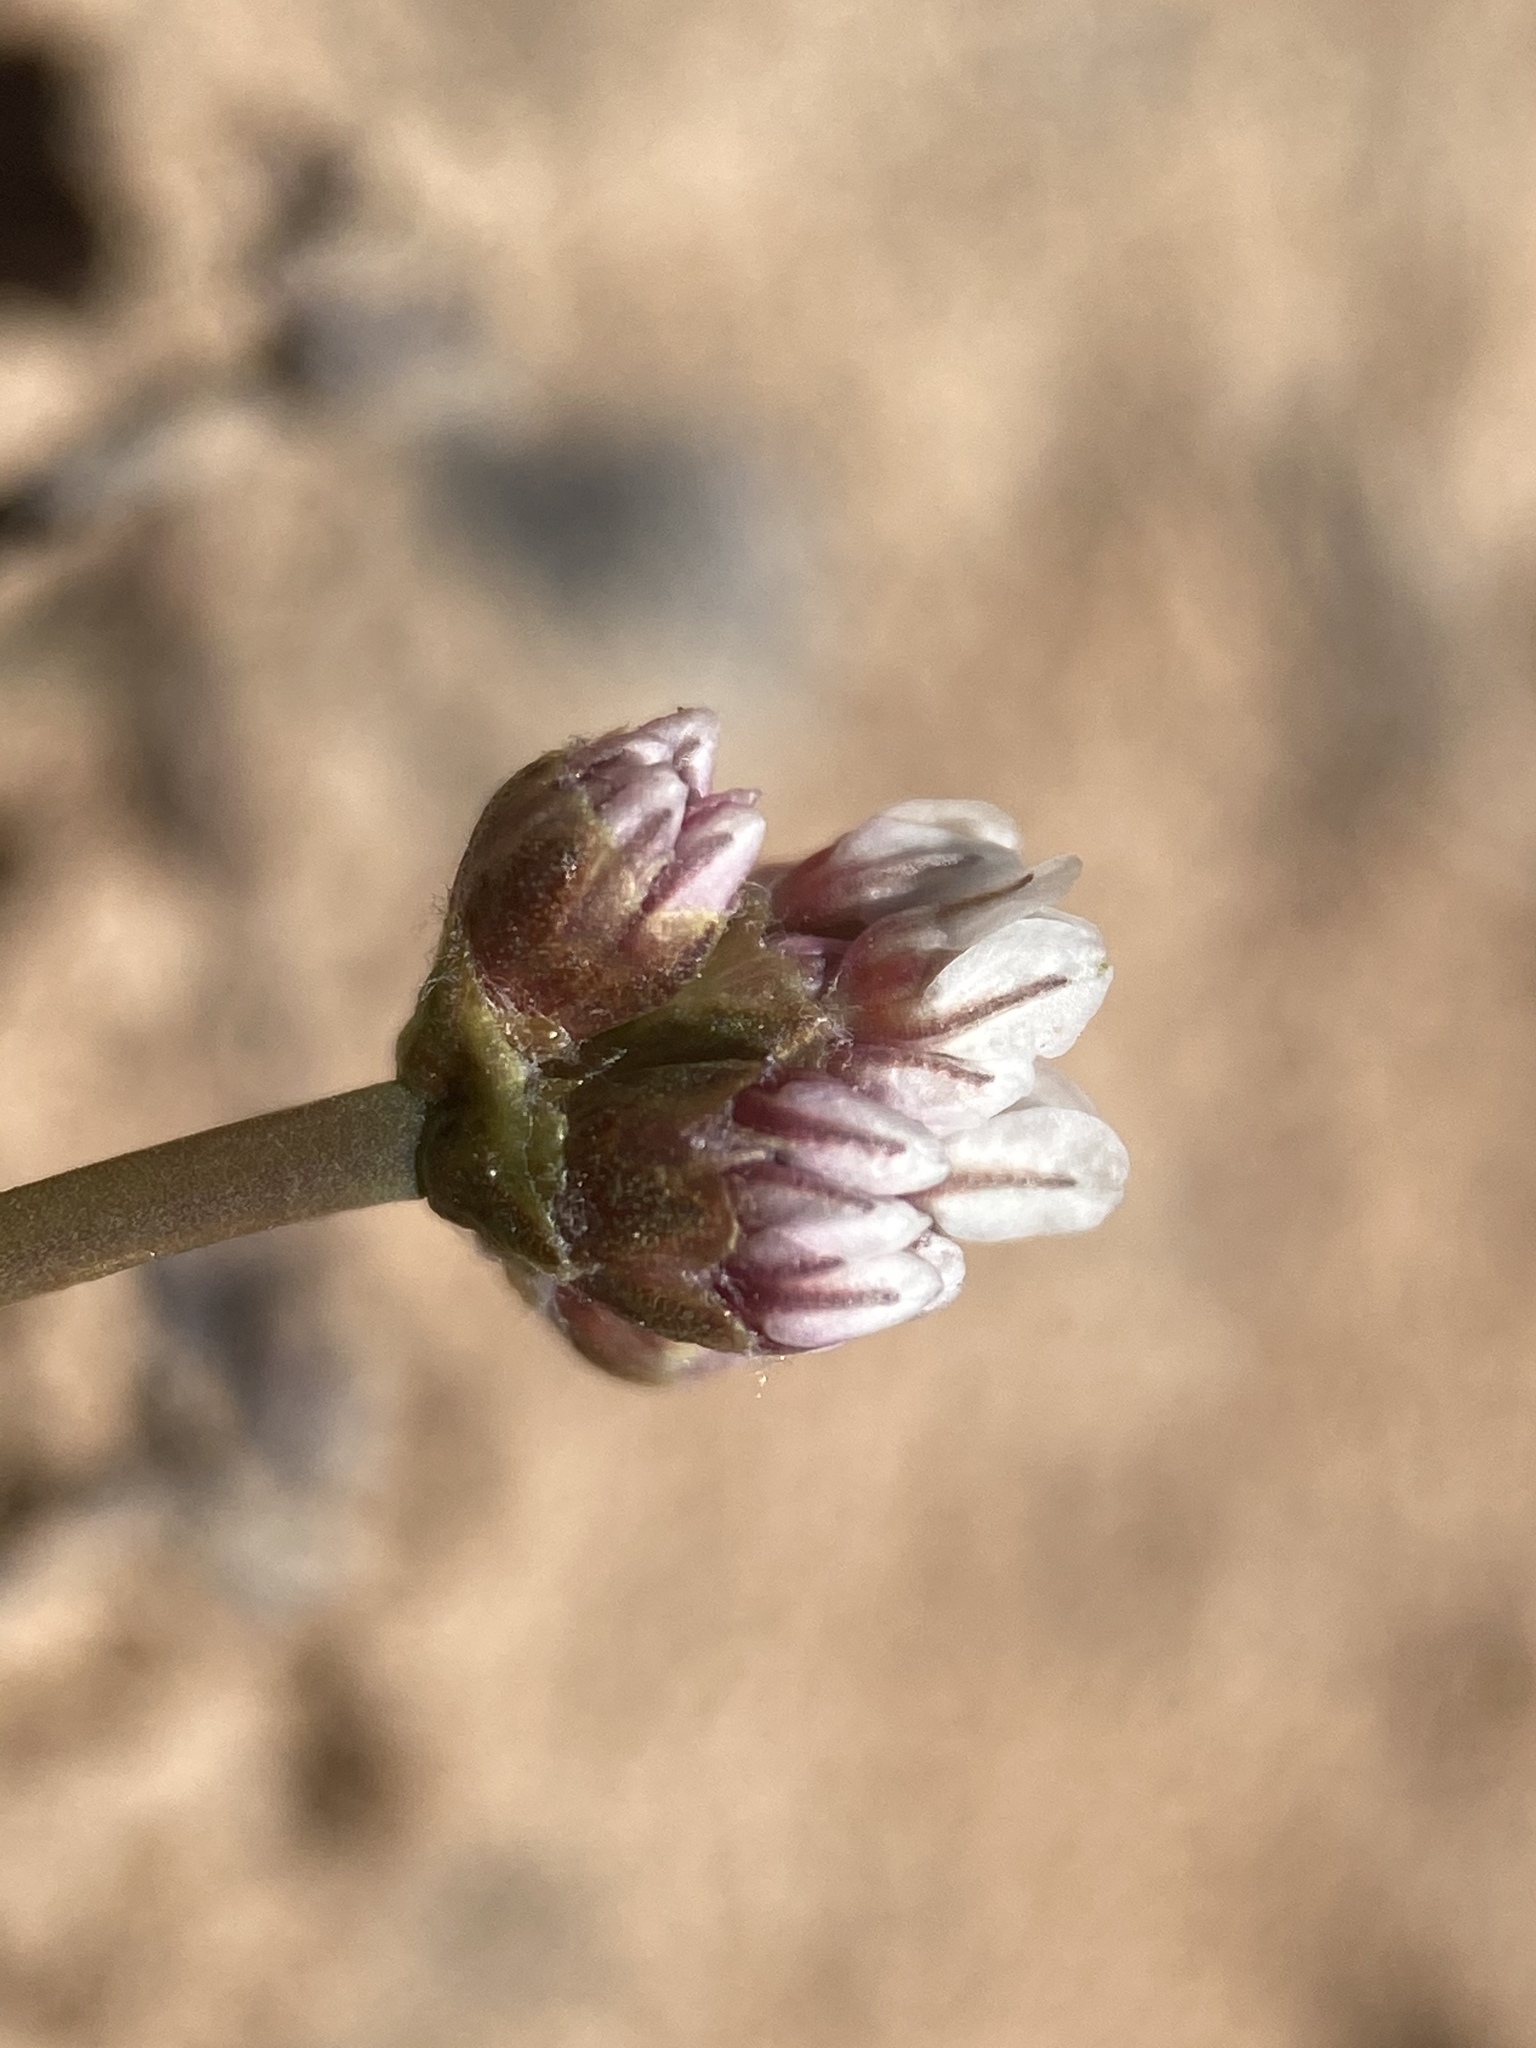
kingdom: Plantae
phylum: Tracheophyta
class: Magnoliopsida
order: Caryophyllales
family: Polygonaceae
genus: Eriogonum
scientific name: Eriogonum panguicense
